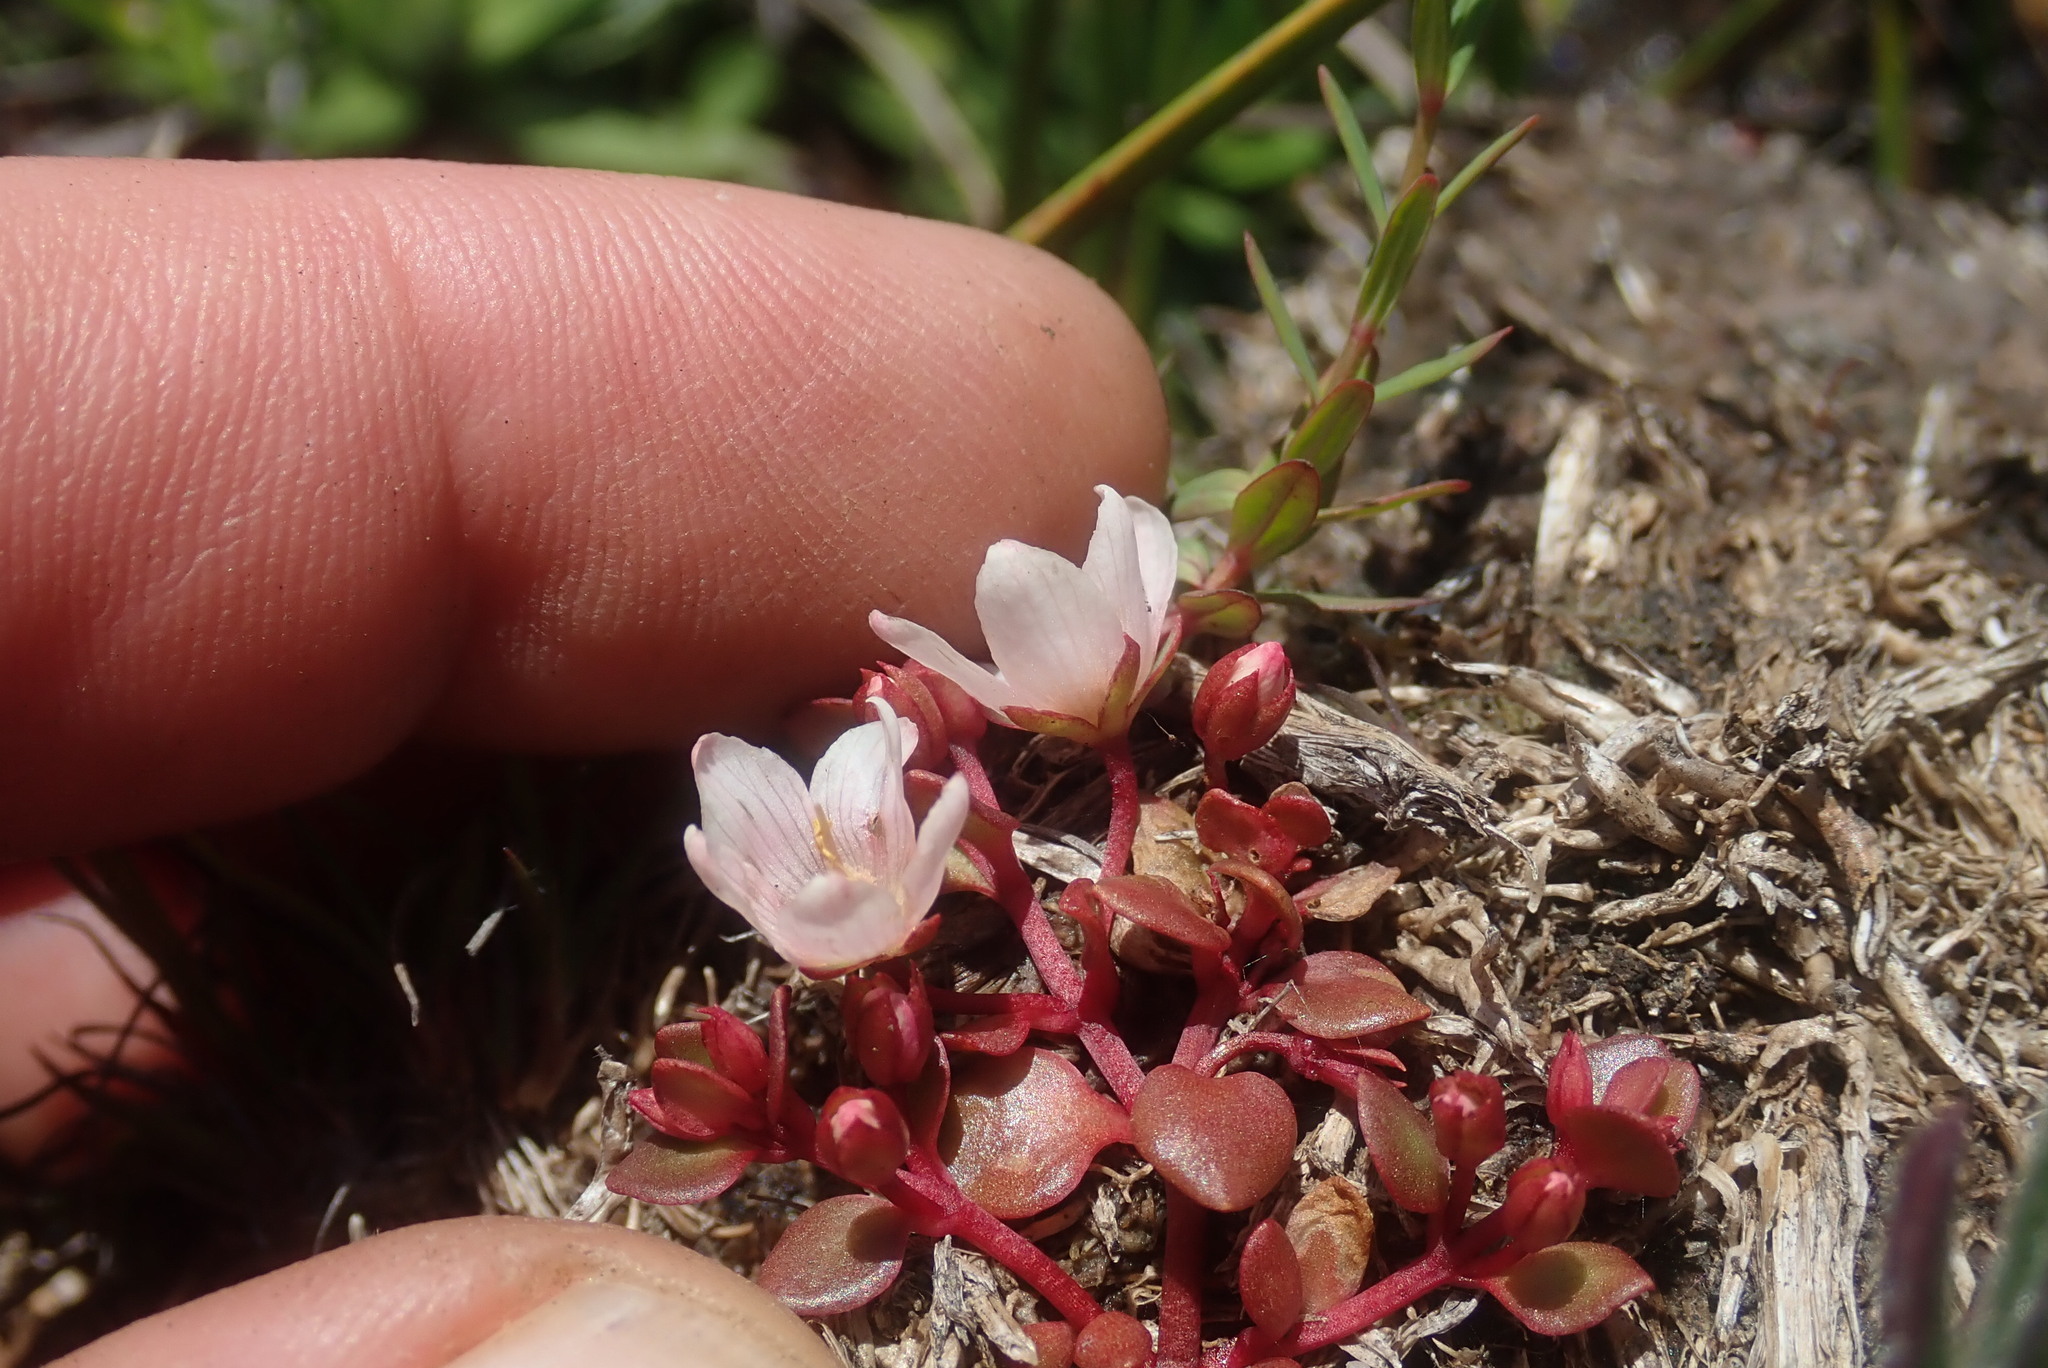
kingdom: Plantae
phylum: Tracheophyta
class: Magnoliopsida
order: Ericales
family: Primulaceae
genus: Lysimachia
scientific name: Lysimachia huttonii
